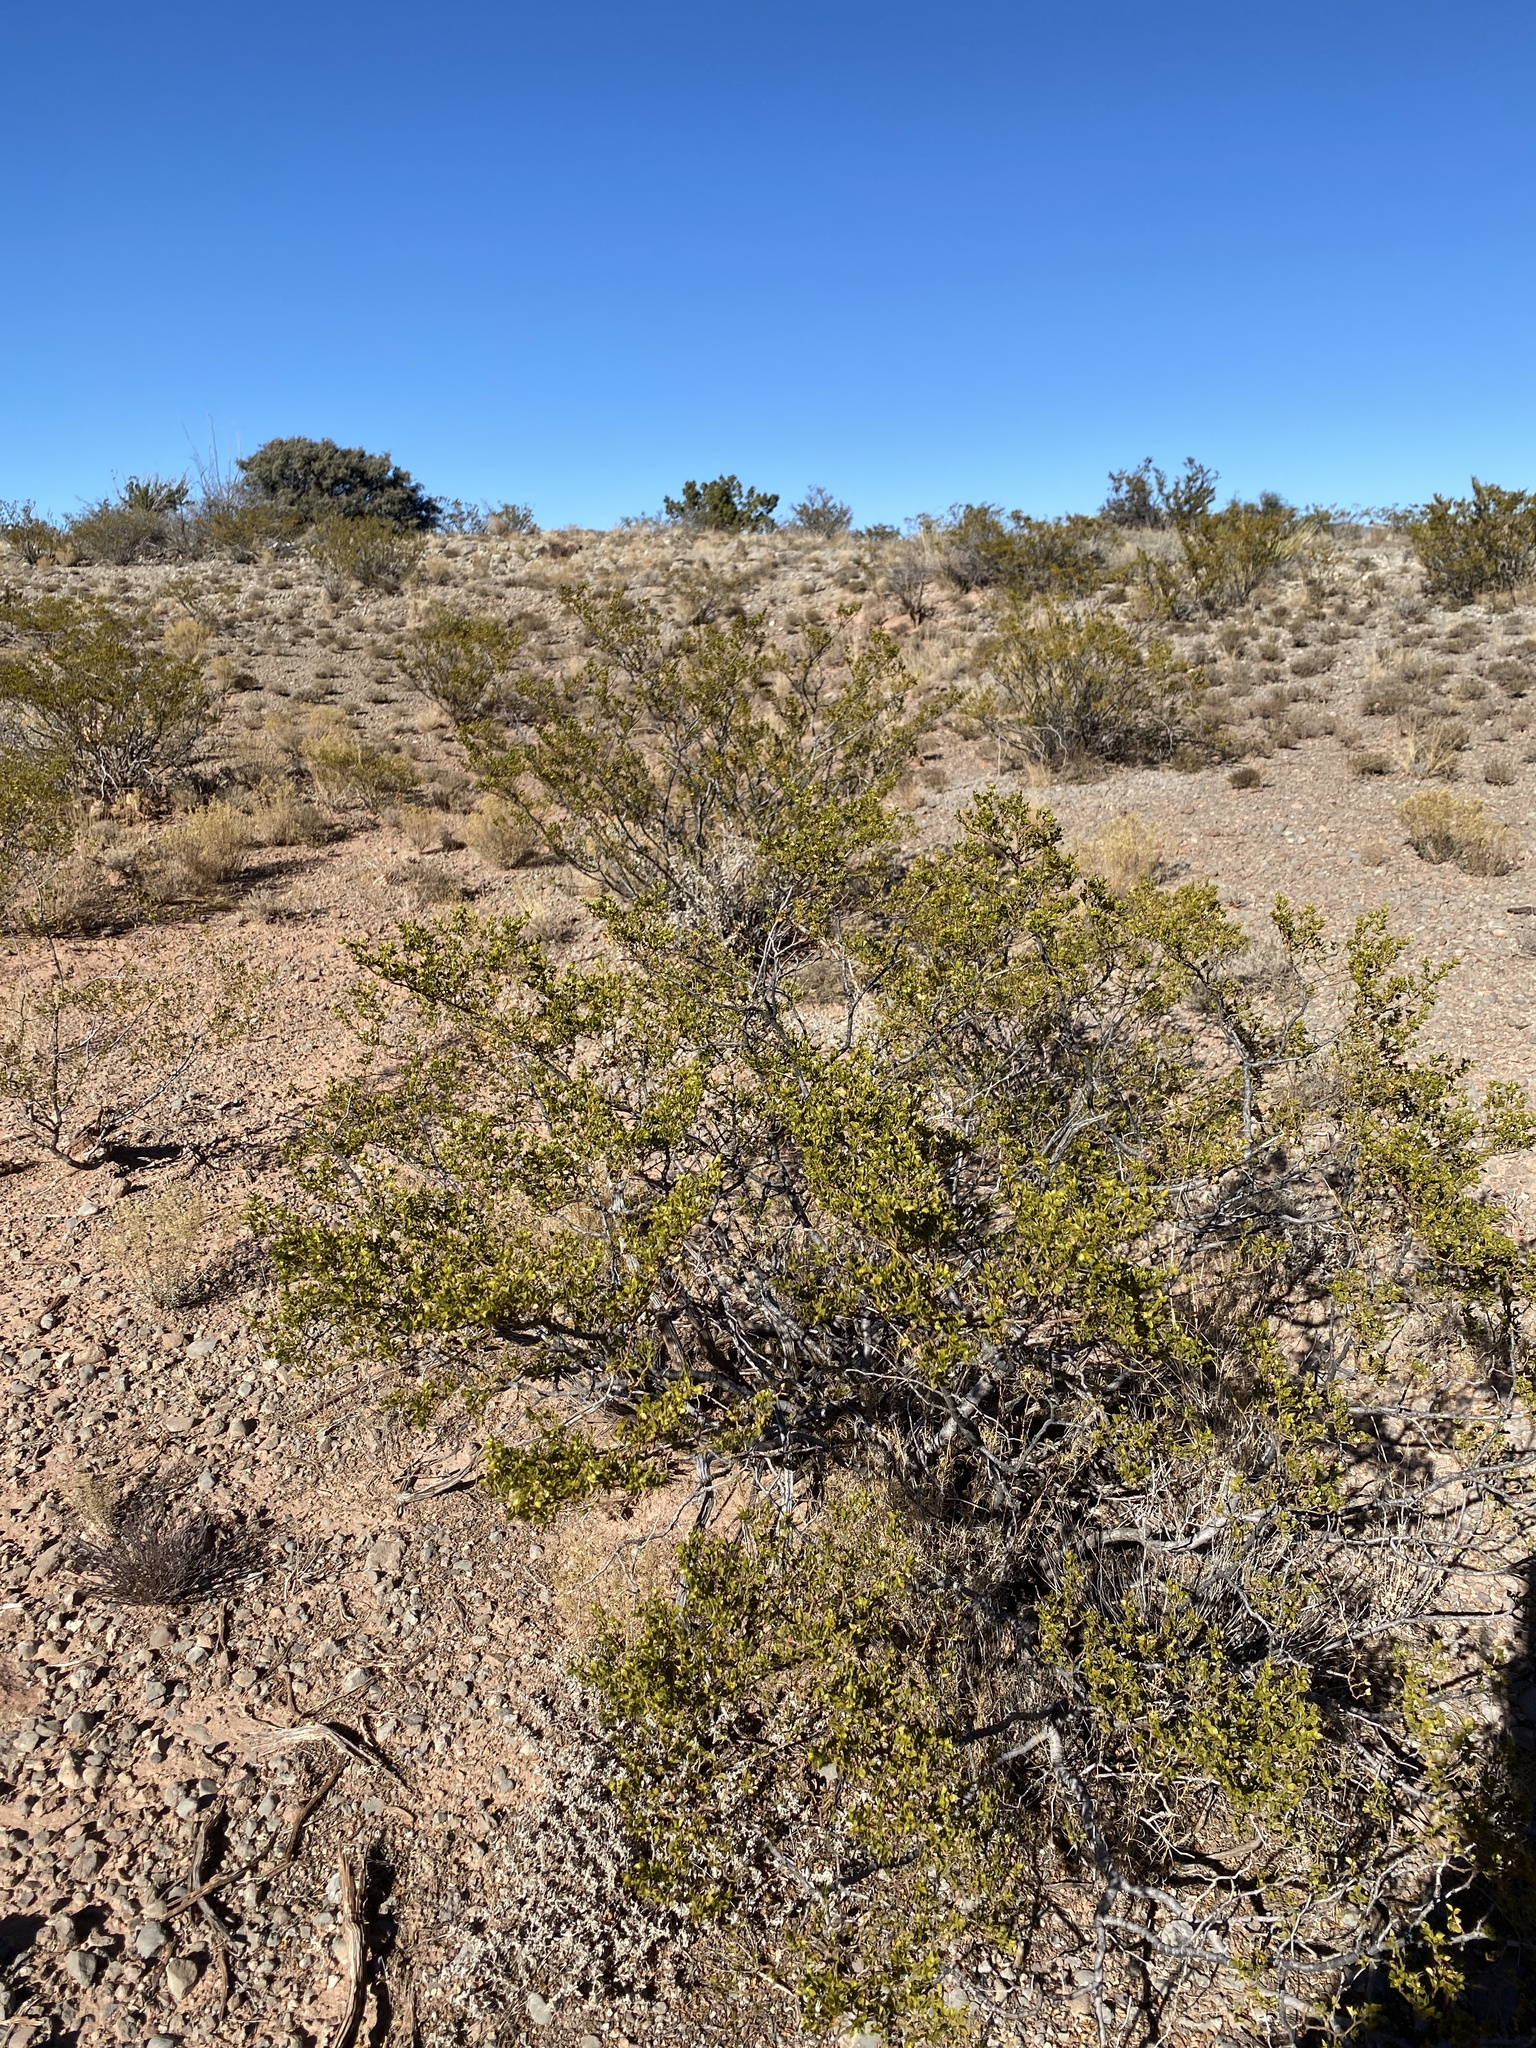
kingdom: Plantae
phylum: Tracheophyta
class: Magnoliopsida
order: Zygophyllales
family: Zygophyllaceae
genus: Larrea
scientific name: Larrea tridentata
